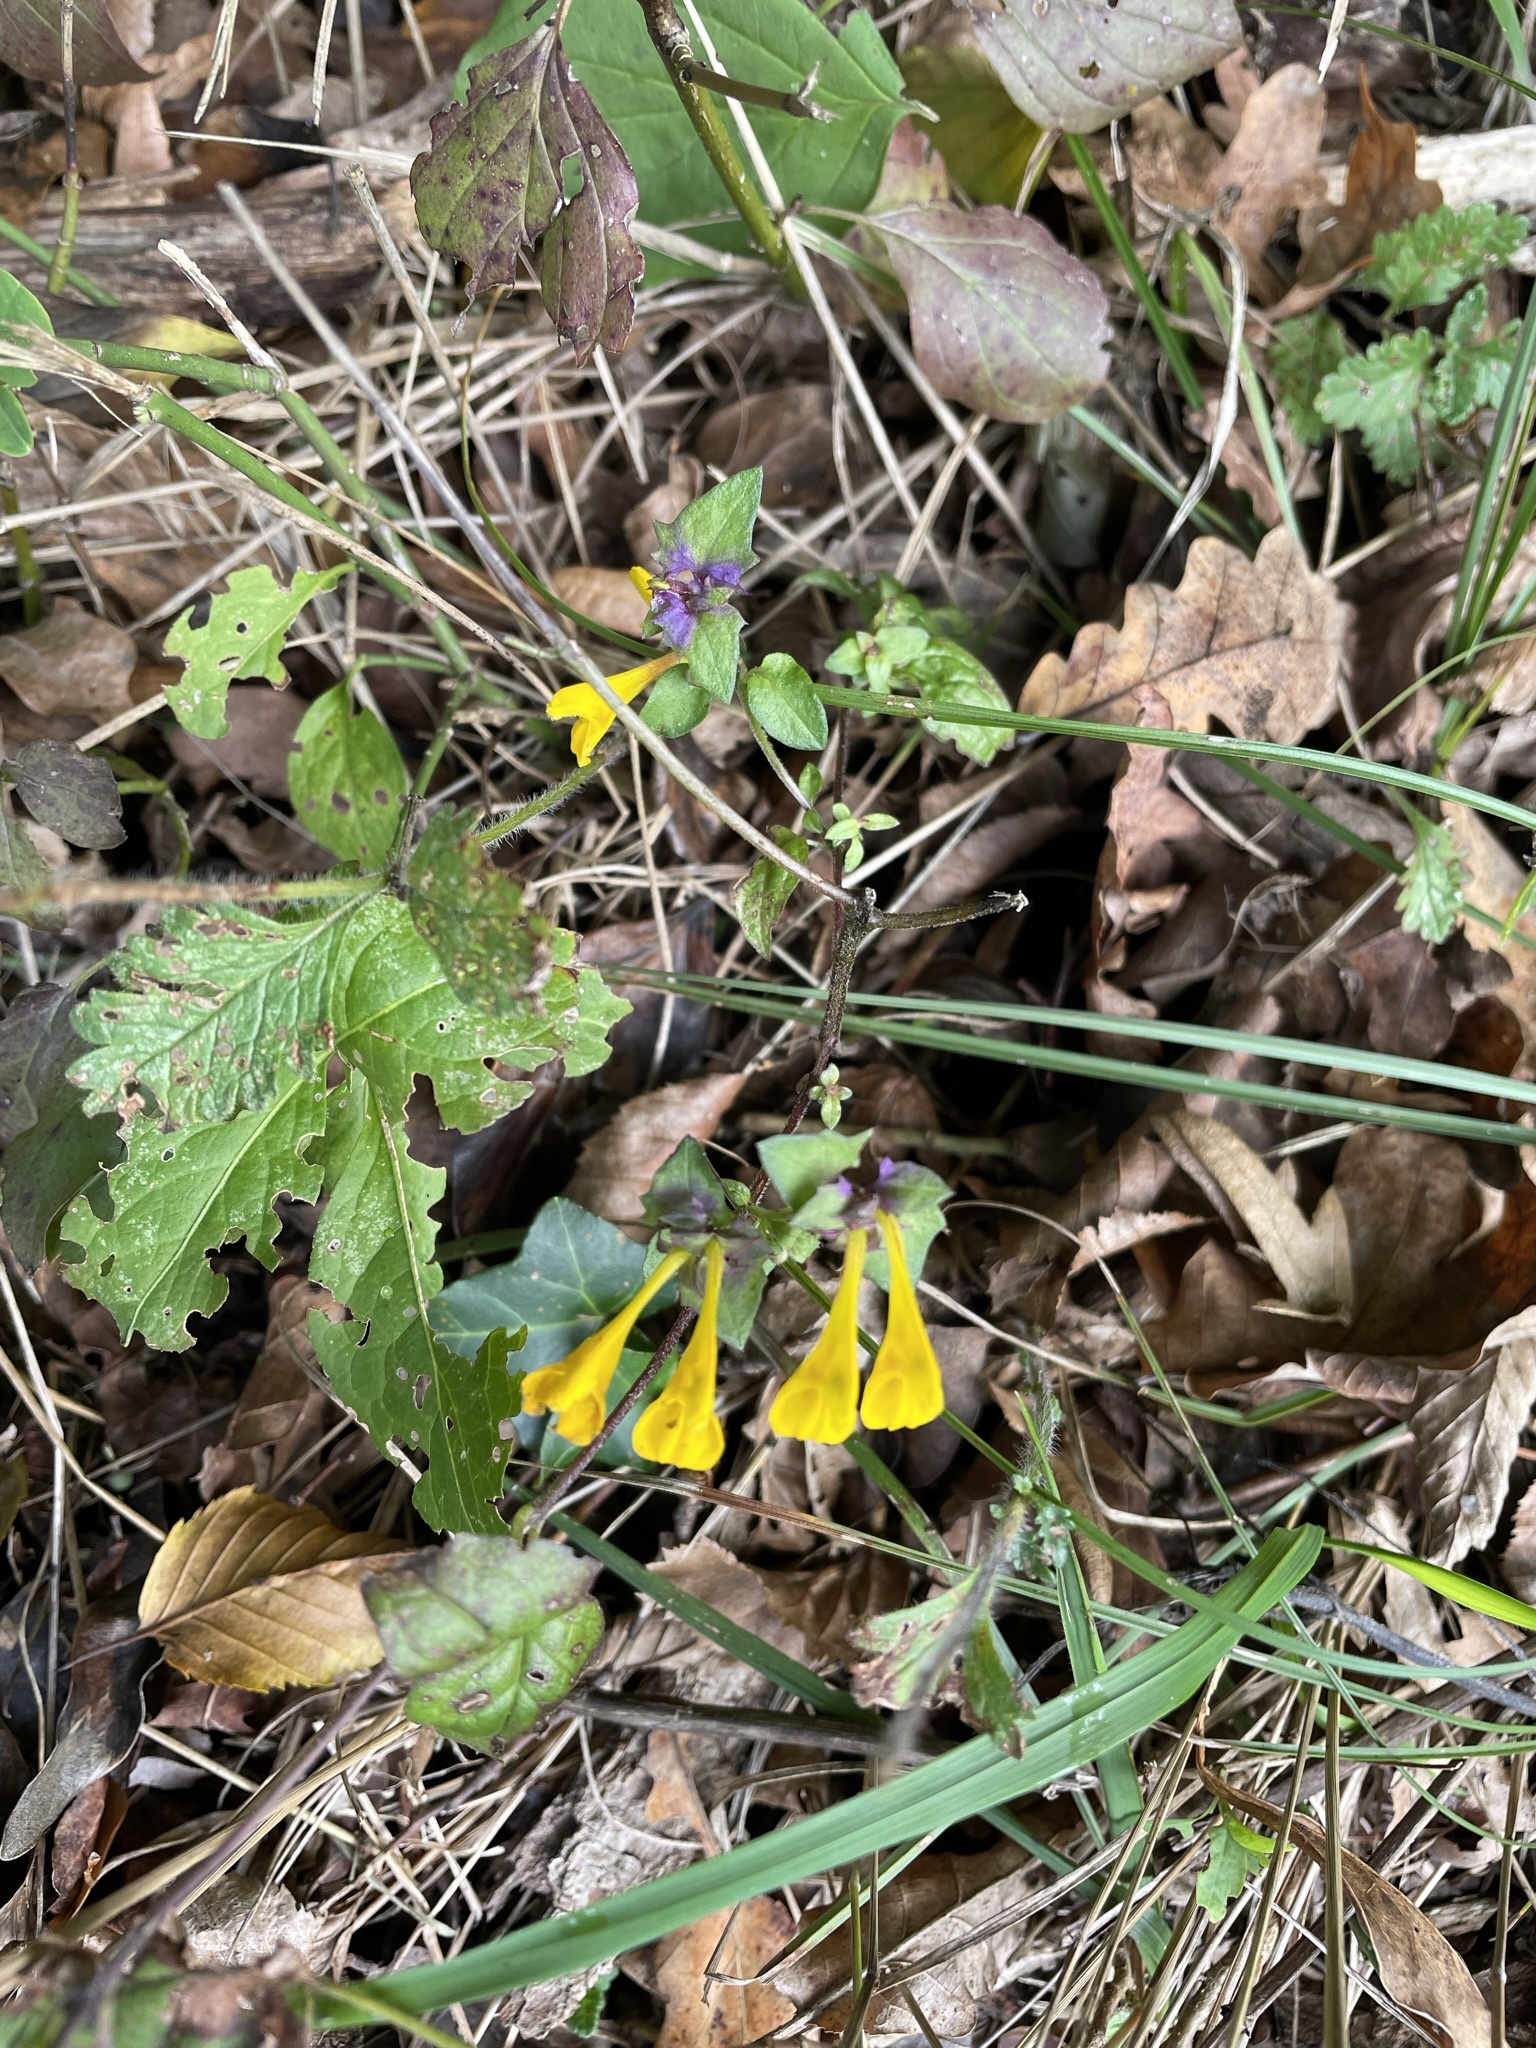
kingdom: Plantae
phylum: Tracheophyta
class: Magnoliopsida
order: Lamiales
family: Orobanchaceae
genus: Melampyrum
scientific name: Melampyrum nemorosum
